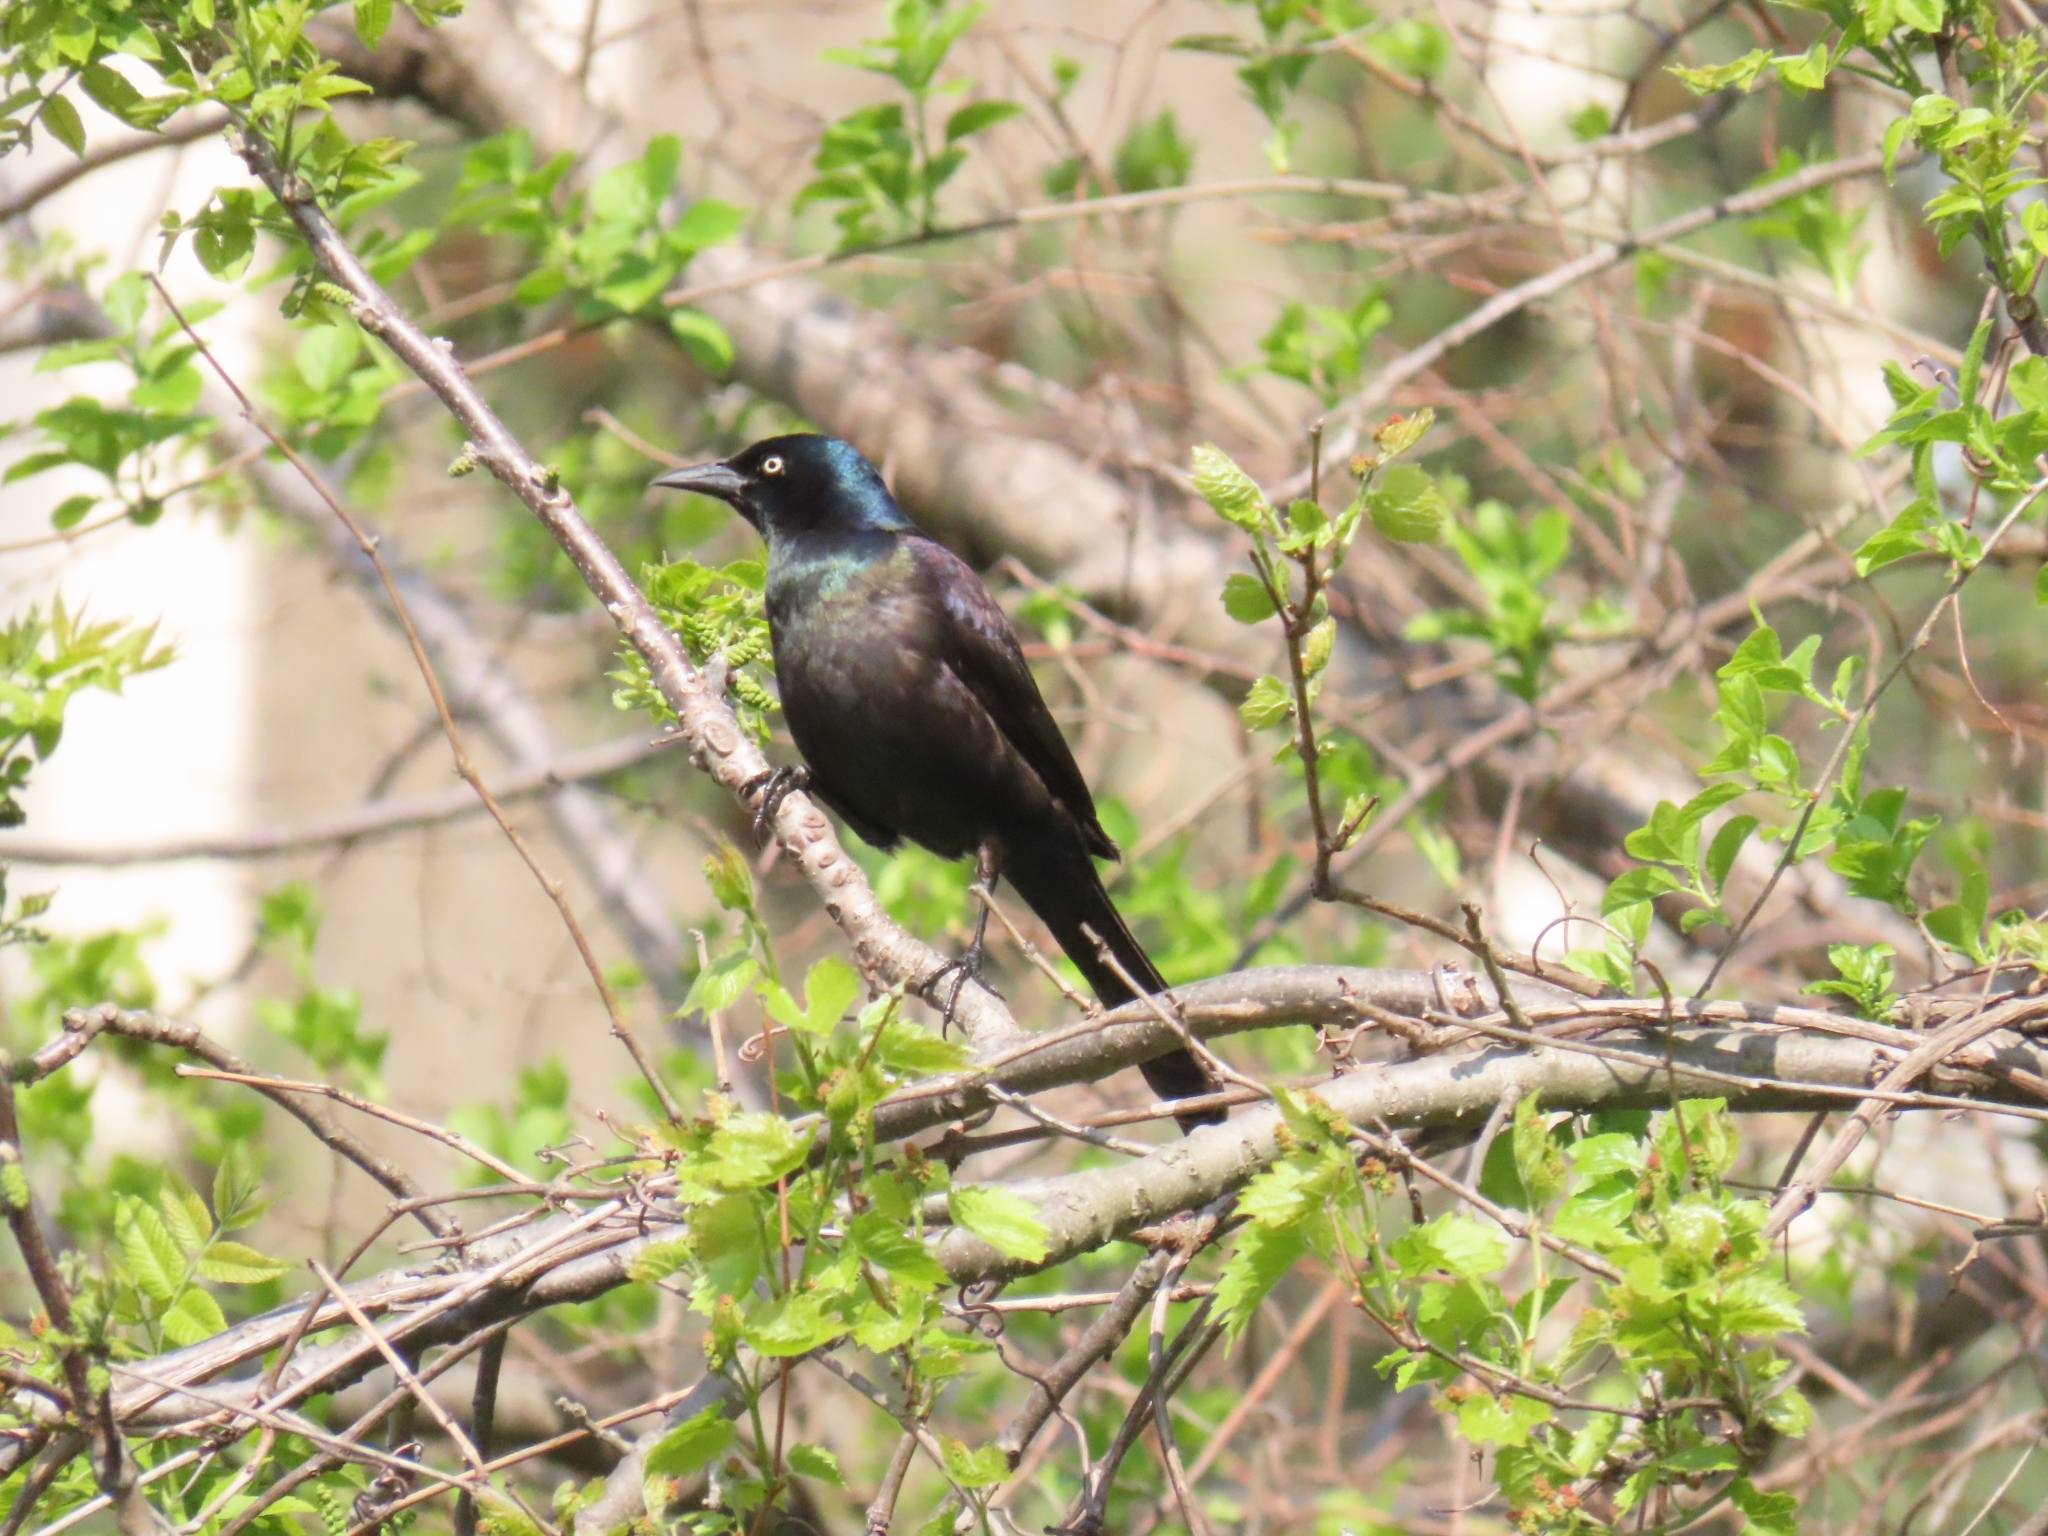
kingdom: Animalia
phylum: Chordata
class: Aves
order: Passeriformes
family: Icteridae
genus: Quiscalus
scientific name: Quiscalus quiscula
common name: Common grackle
